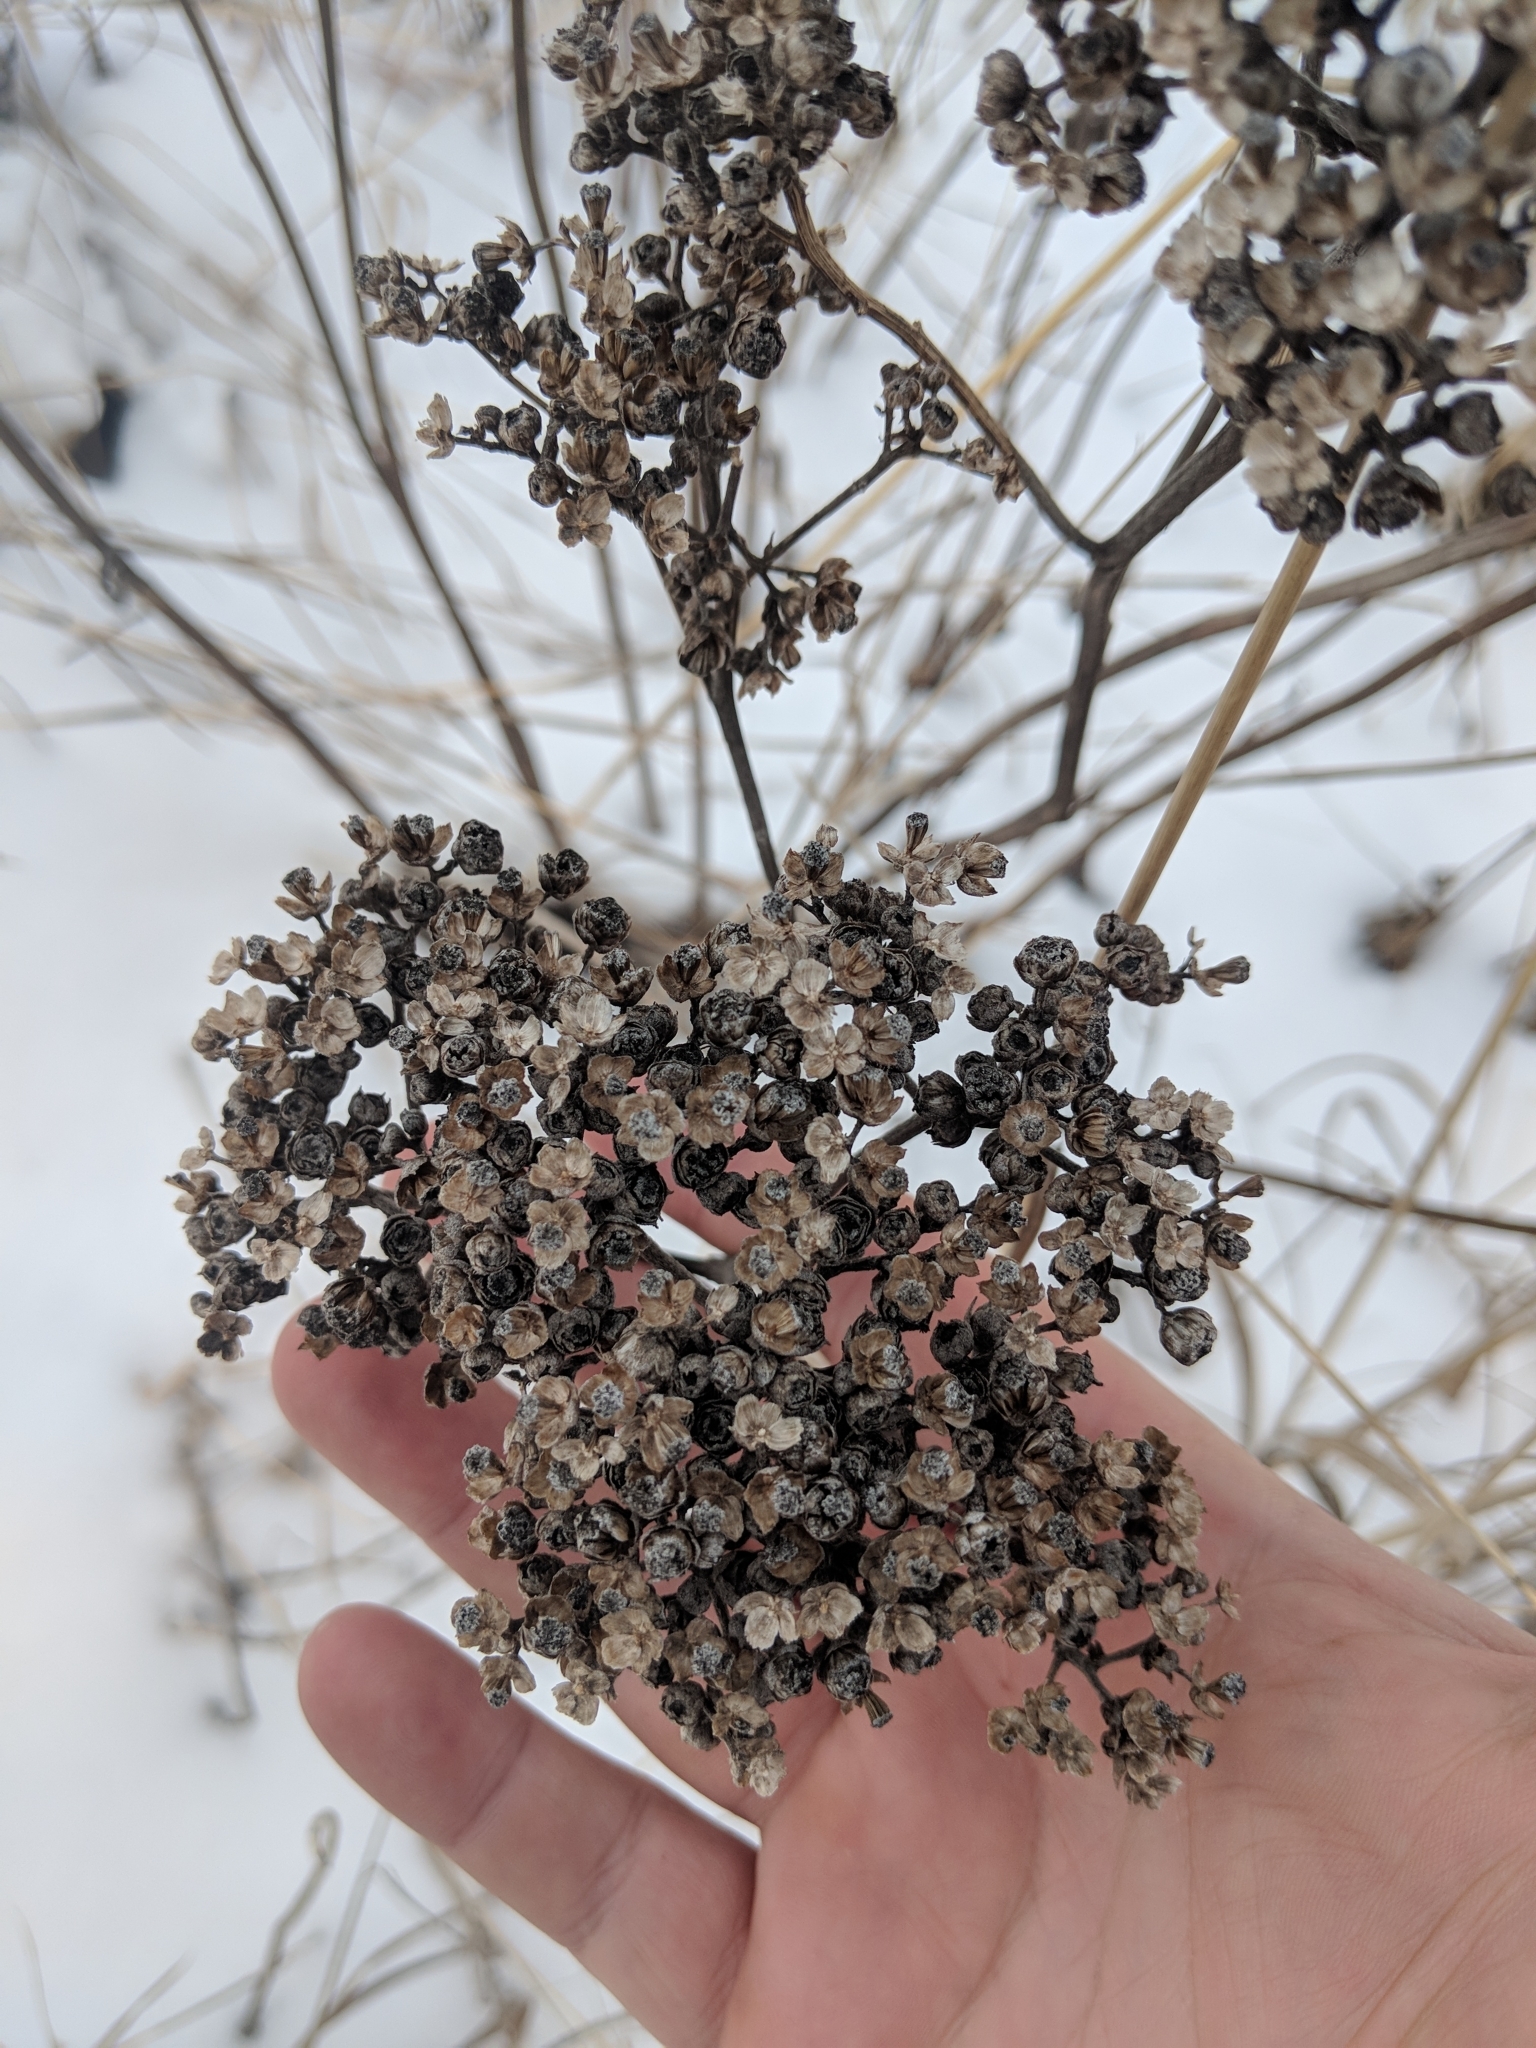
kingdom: Plantae
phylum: Tracheophyta
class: Magnoliopsida
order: Asterales
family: Asteraceae
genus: Parthenium
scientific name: Parthenium integrifolium
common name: American feverfew
